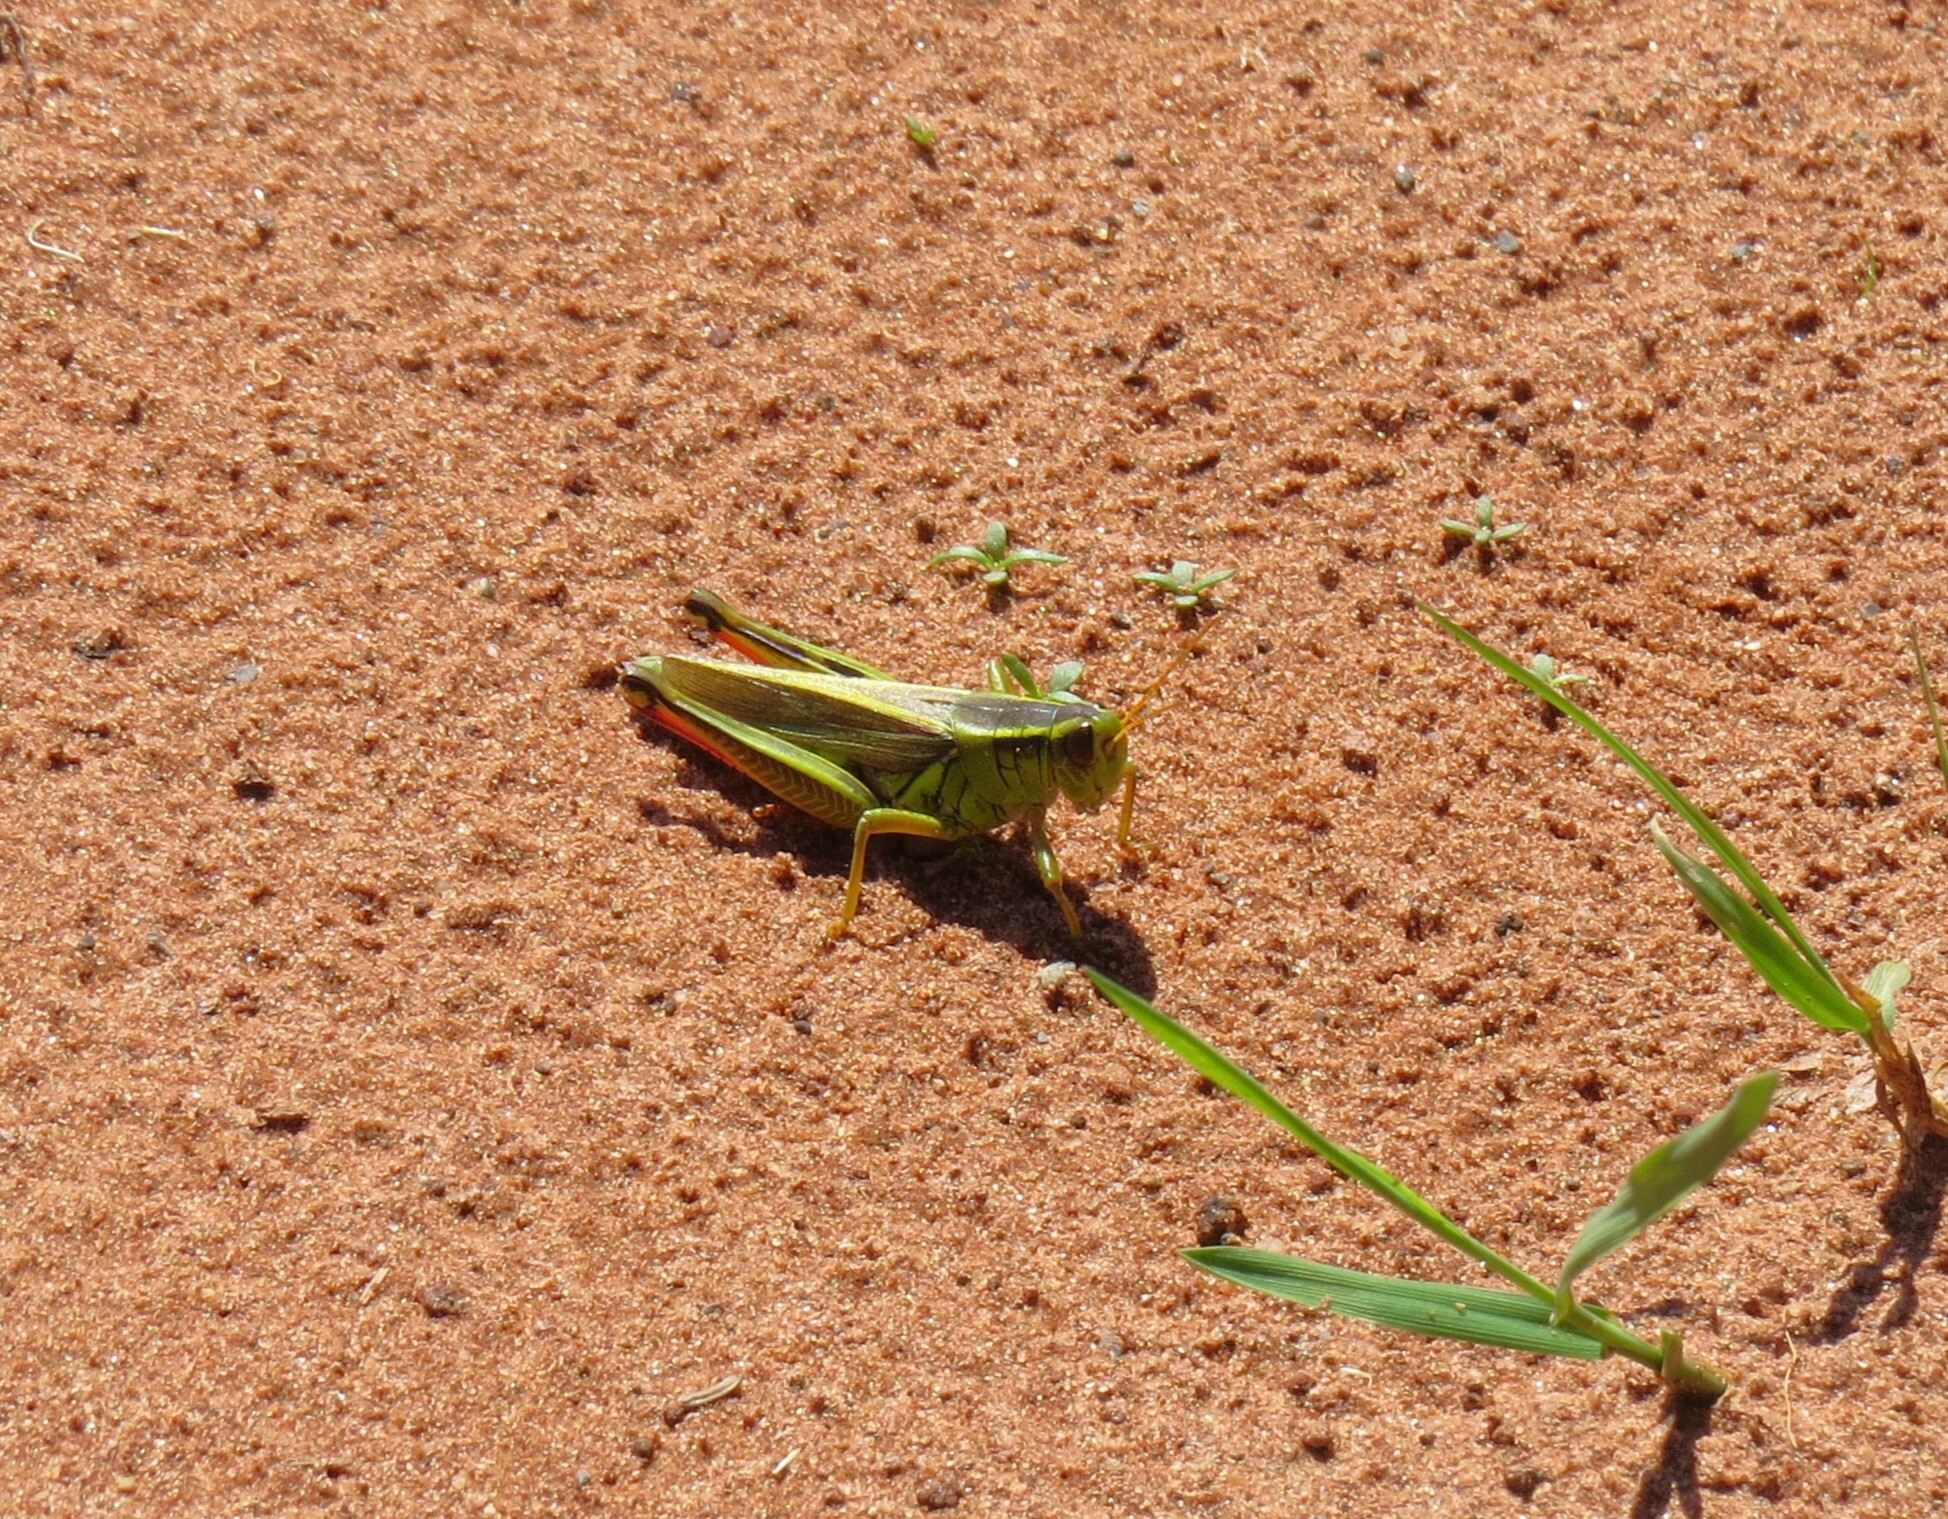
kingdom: Animalia
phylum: Arthropoda
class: Insecta
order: Orthoptera
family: Acrididae
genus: Melanoplus
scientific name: Melanoplus bivittatus
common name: Two-striped grasshopper
